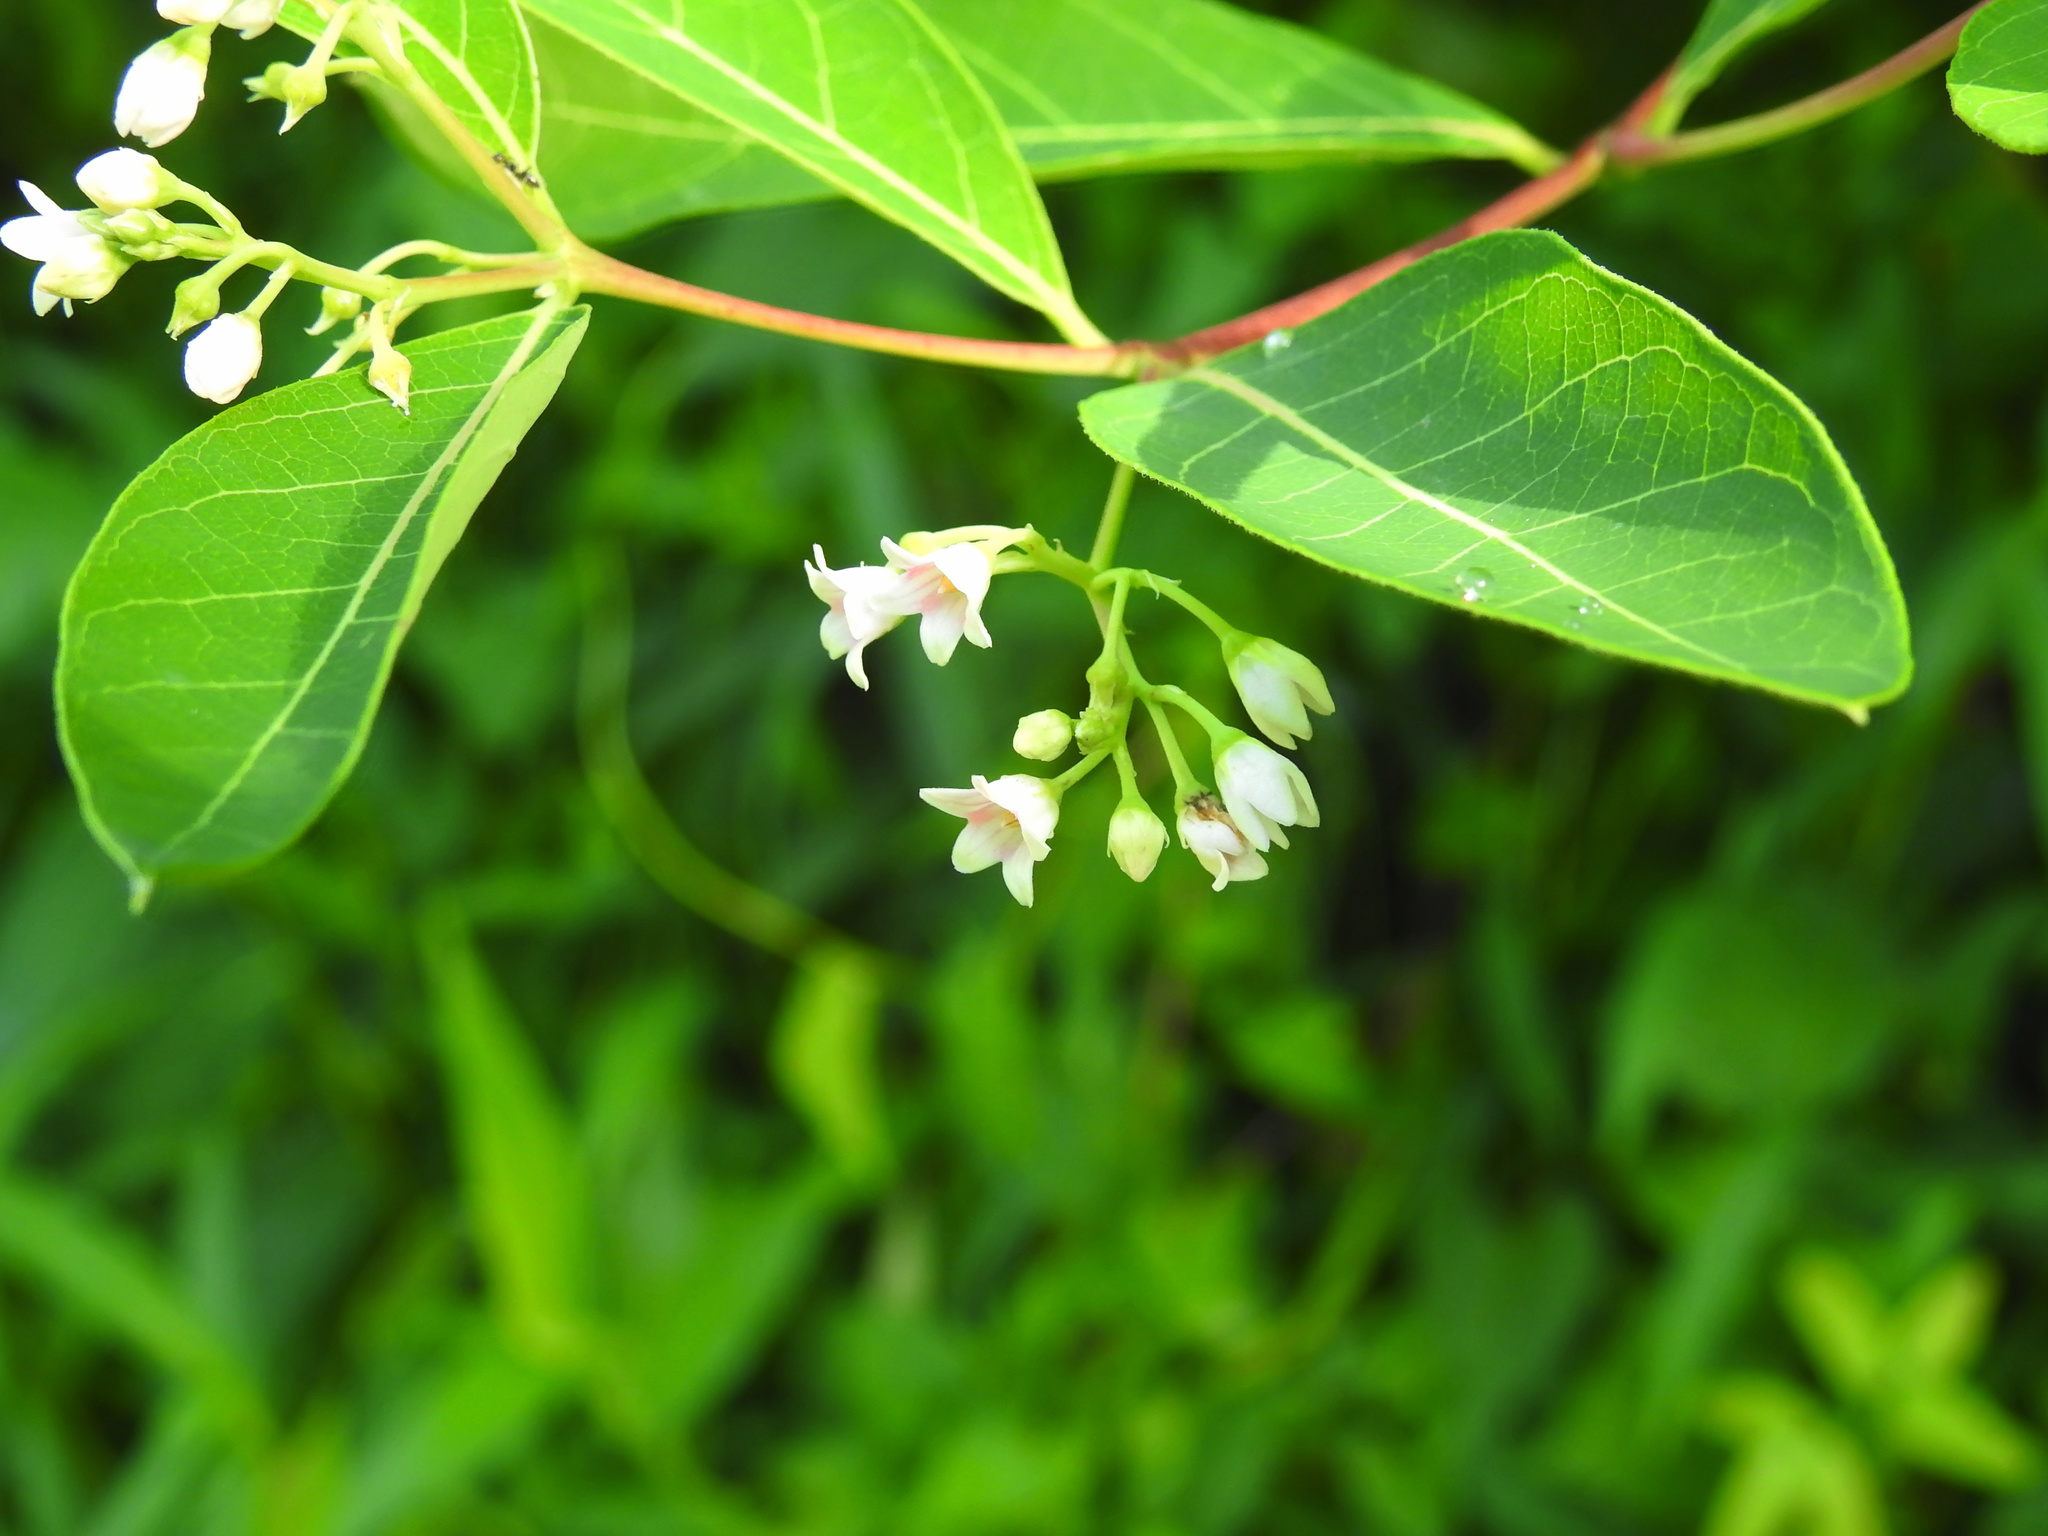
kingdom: Plantae
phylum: Tracheophyta
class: Magnoliopsida
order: Gentianales
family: Apocynaceae
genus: Apocynum
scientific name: Apocynum androsaemifolium
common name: Spreading dogbane
